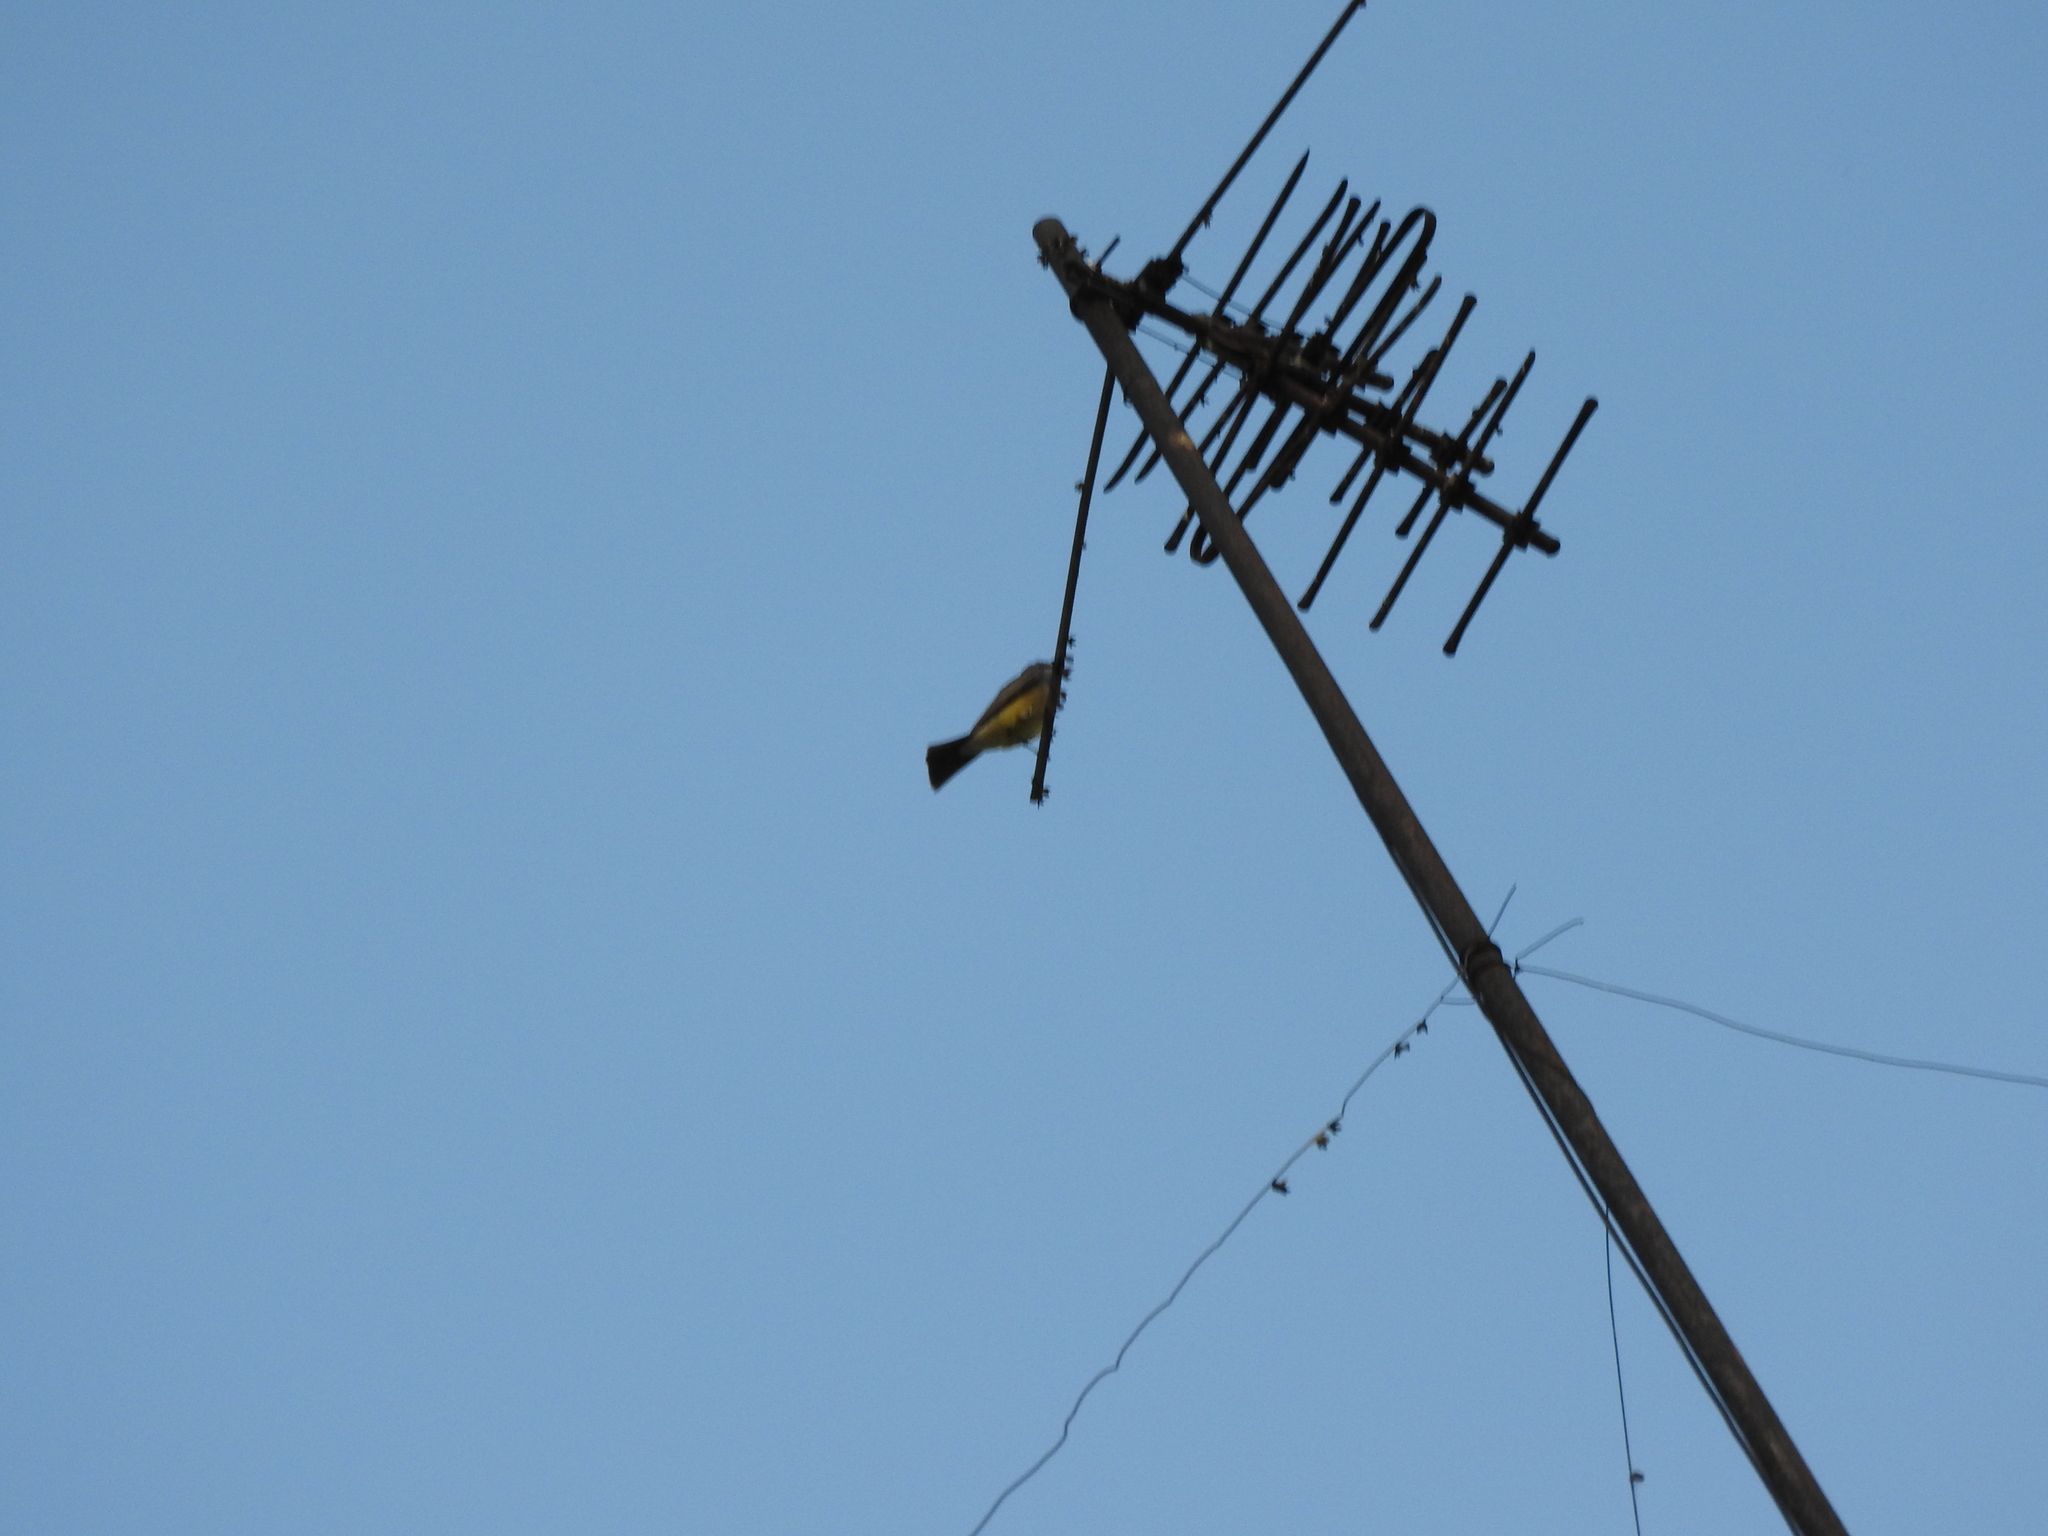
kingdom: Animalia
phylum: Chordata
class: Aves
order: Passeriformes
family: Tyrannidae
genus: Tyrannus
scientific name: Tyrannus vociferans
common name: Cassin's kingbird
